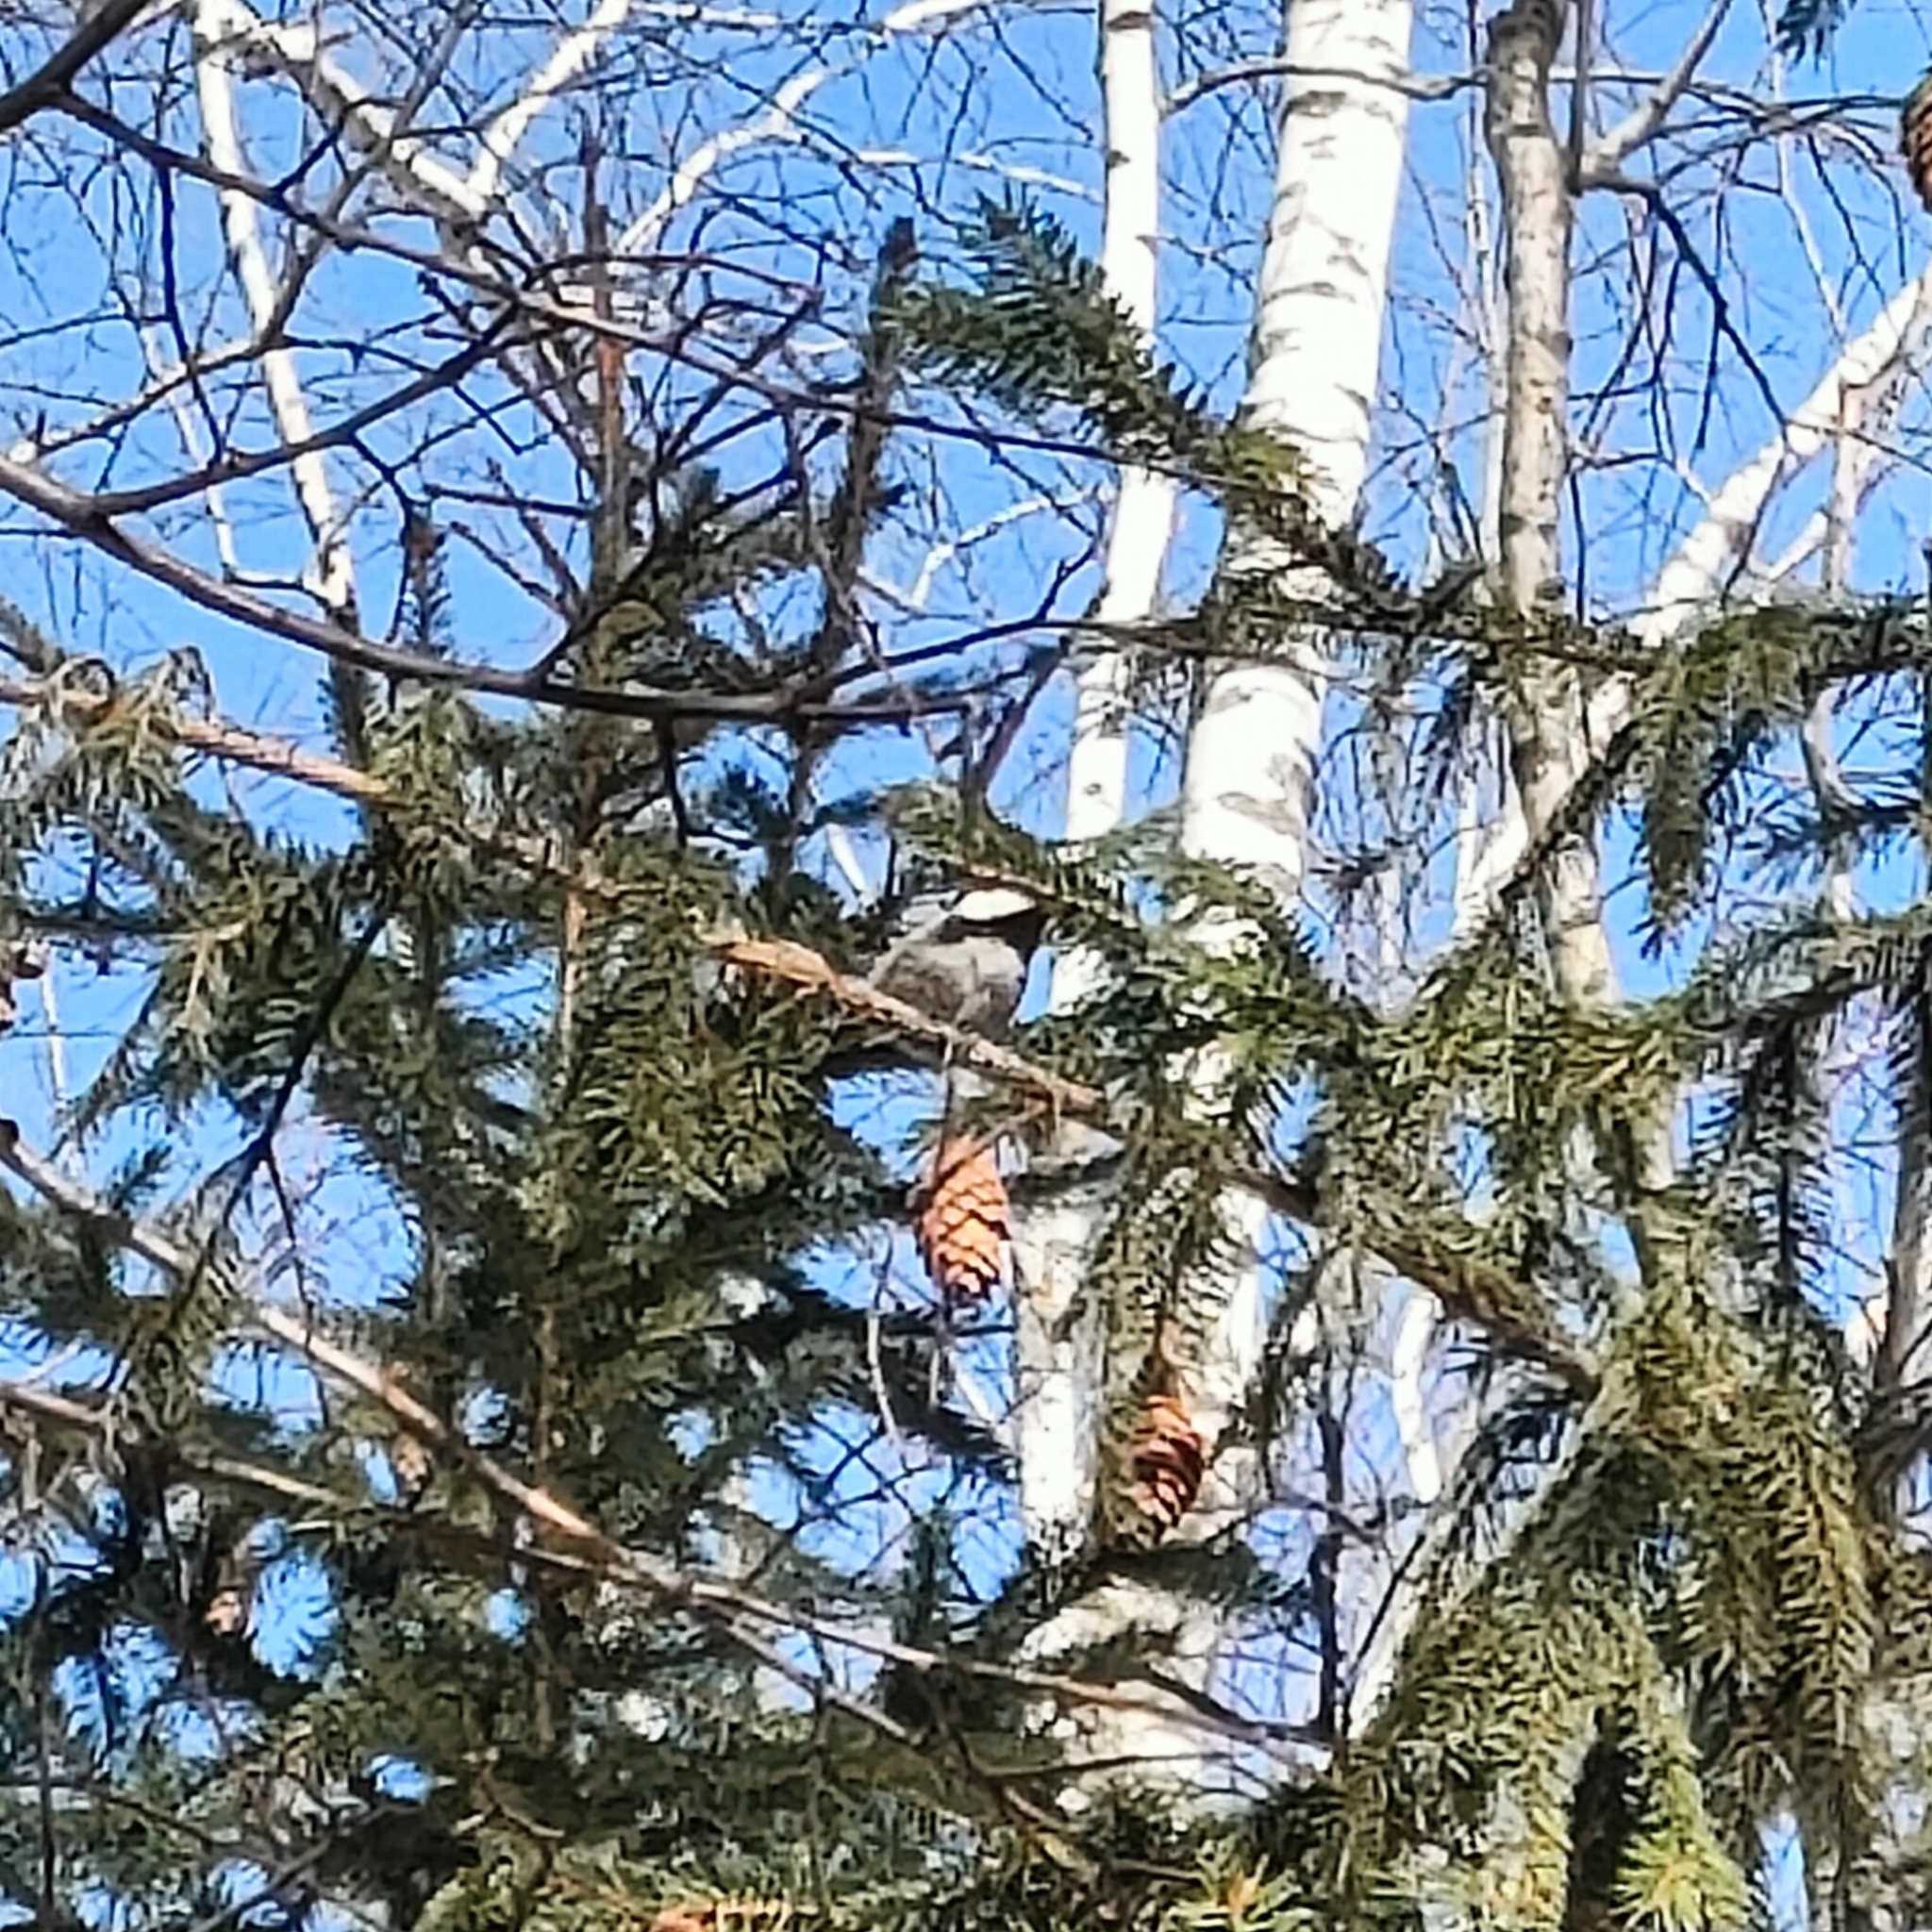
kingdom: Animalia
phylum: Chordata
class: Aves
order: Passeriformes
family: Paridae
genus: Periparus
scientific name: Periparus ater
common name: Coal tit
